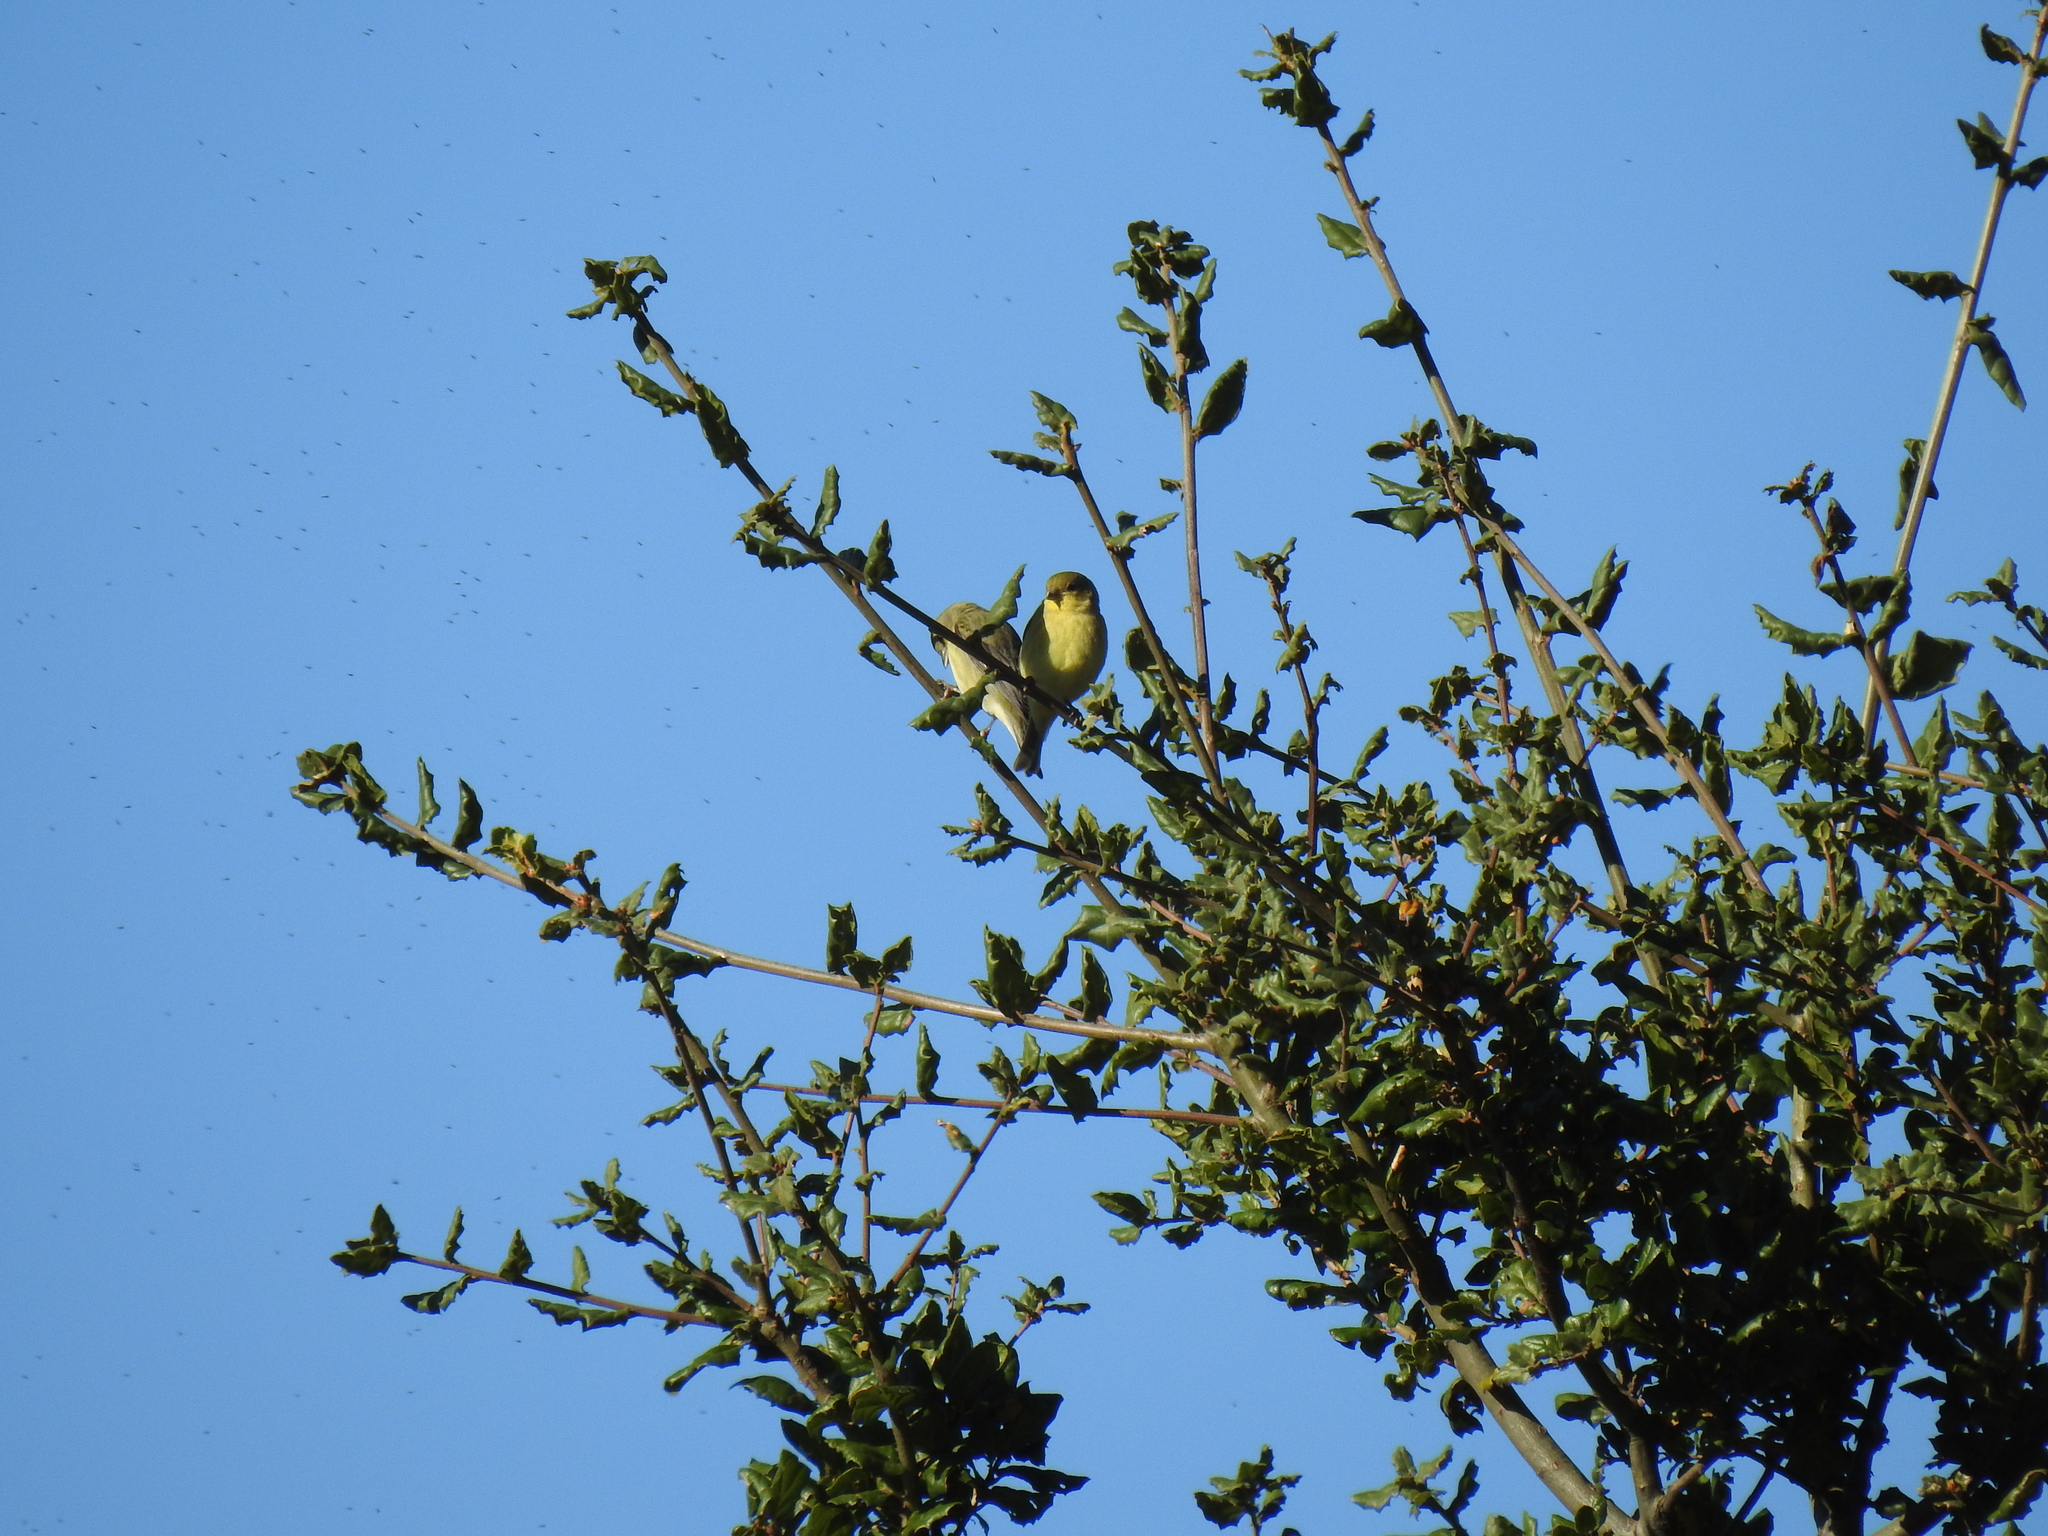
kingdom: Animalia
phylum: Chordata
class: Aves
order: Passeriformes
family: Fringillidae
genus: Spinus
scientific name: Spinus psaltria
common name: Lesser goldfinch
